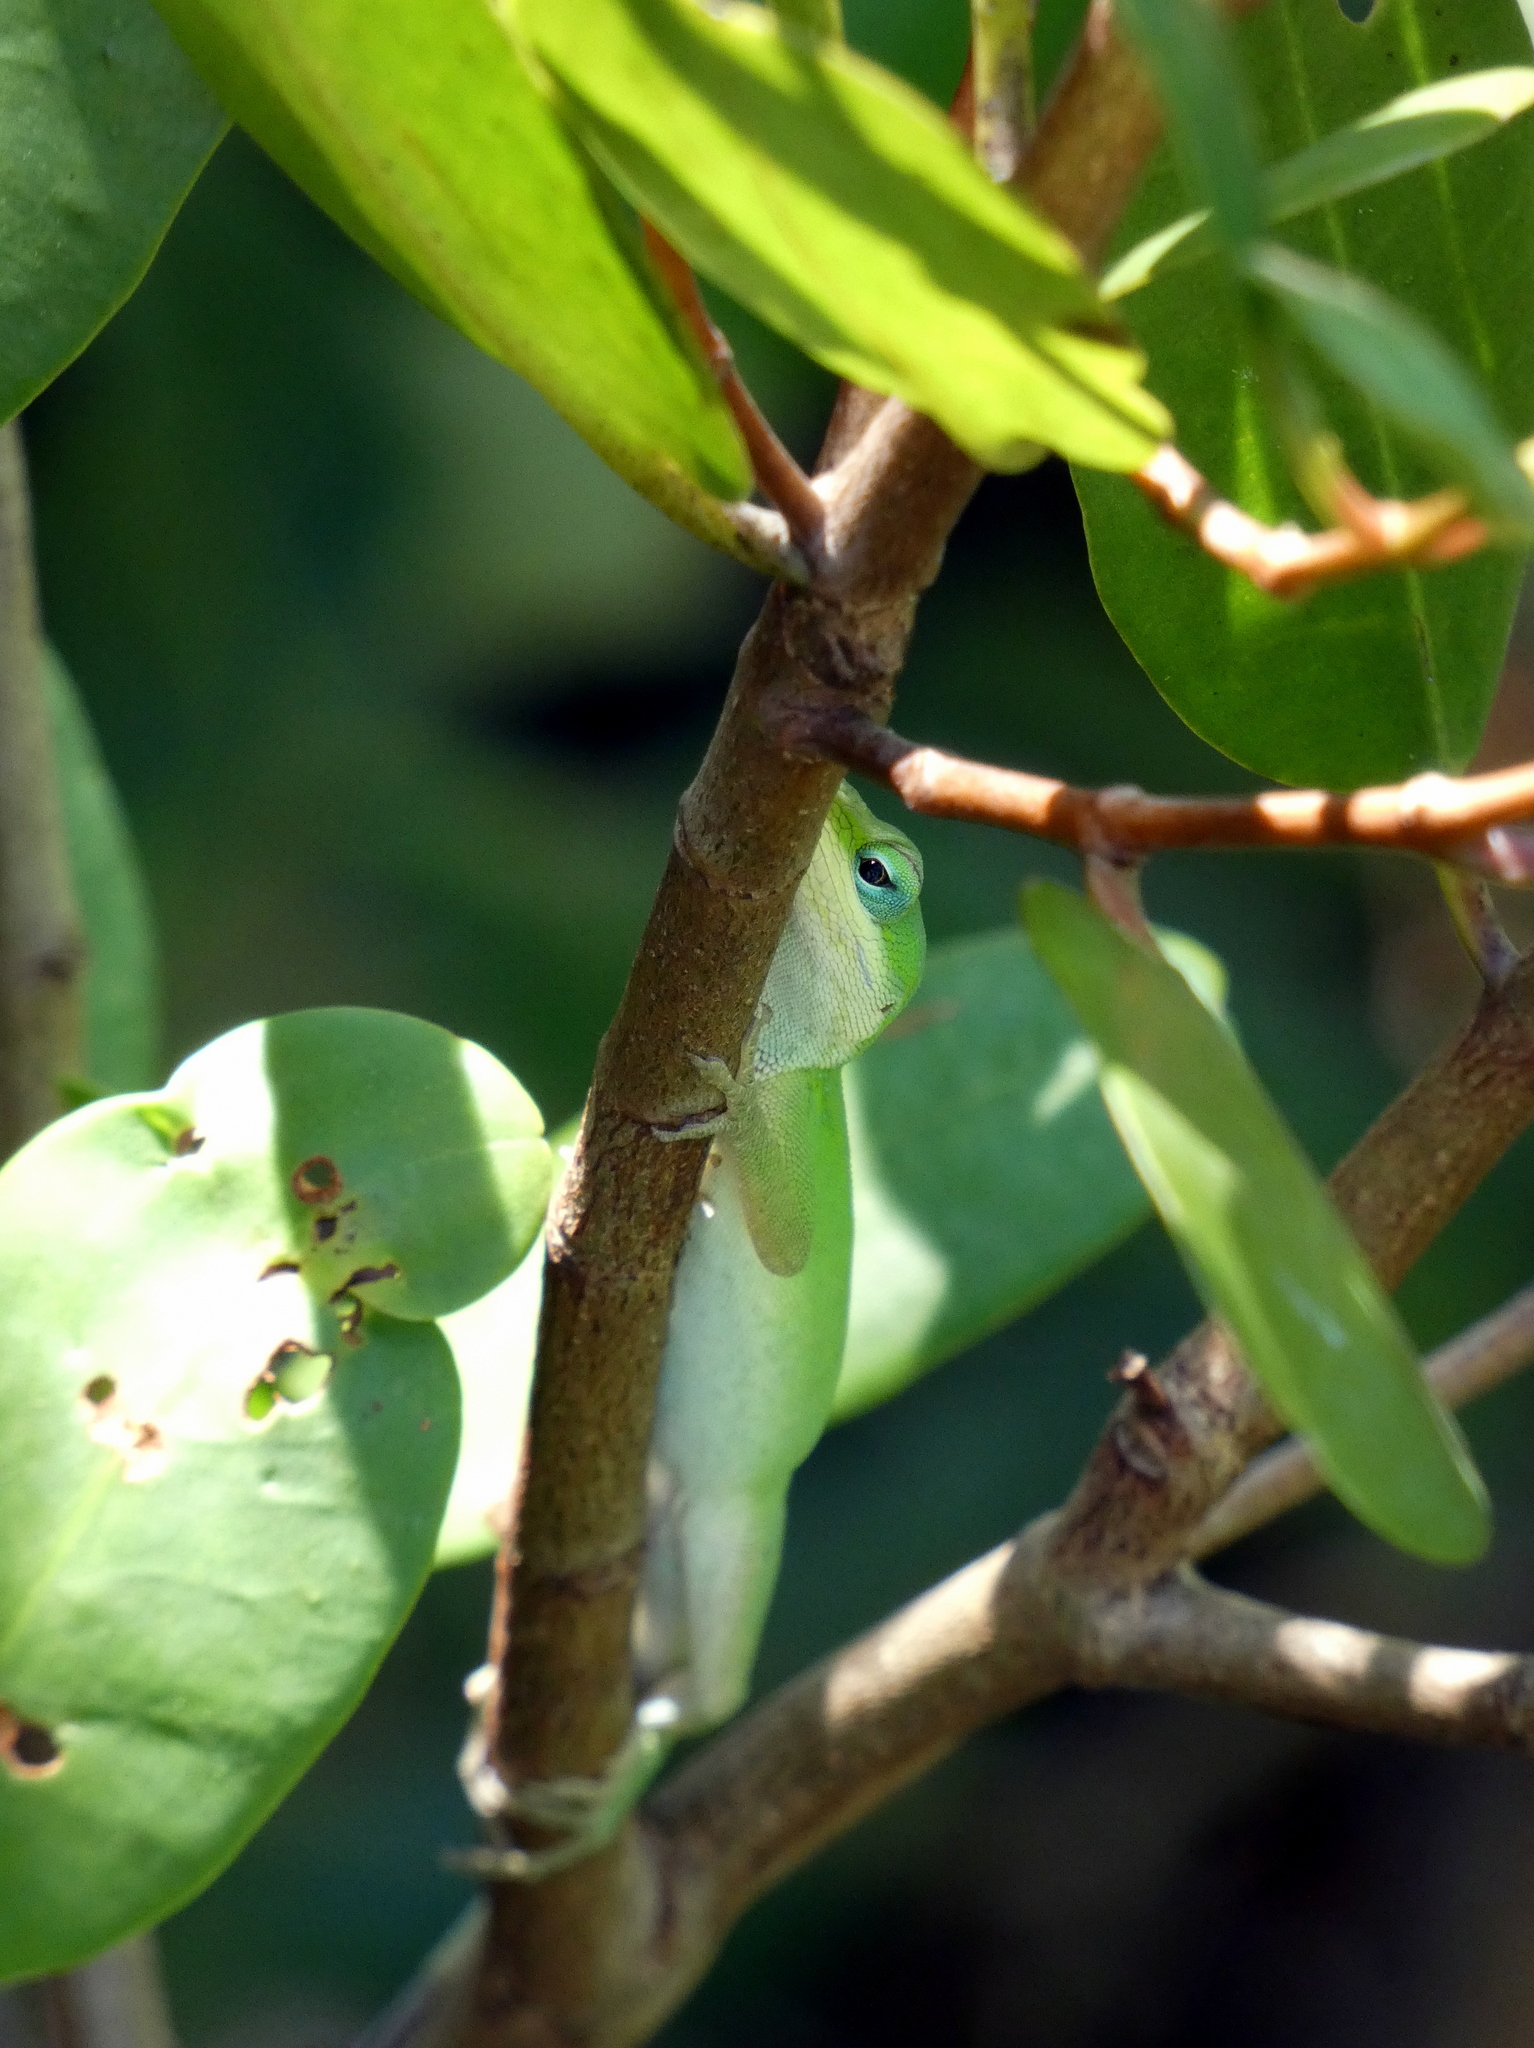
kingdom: Animalia
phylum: Chordata
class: Squamata
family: Dactyloidae
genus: Anolis
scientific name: Anolis carolinensis
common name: Green anole
